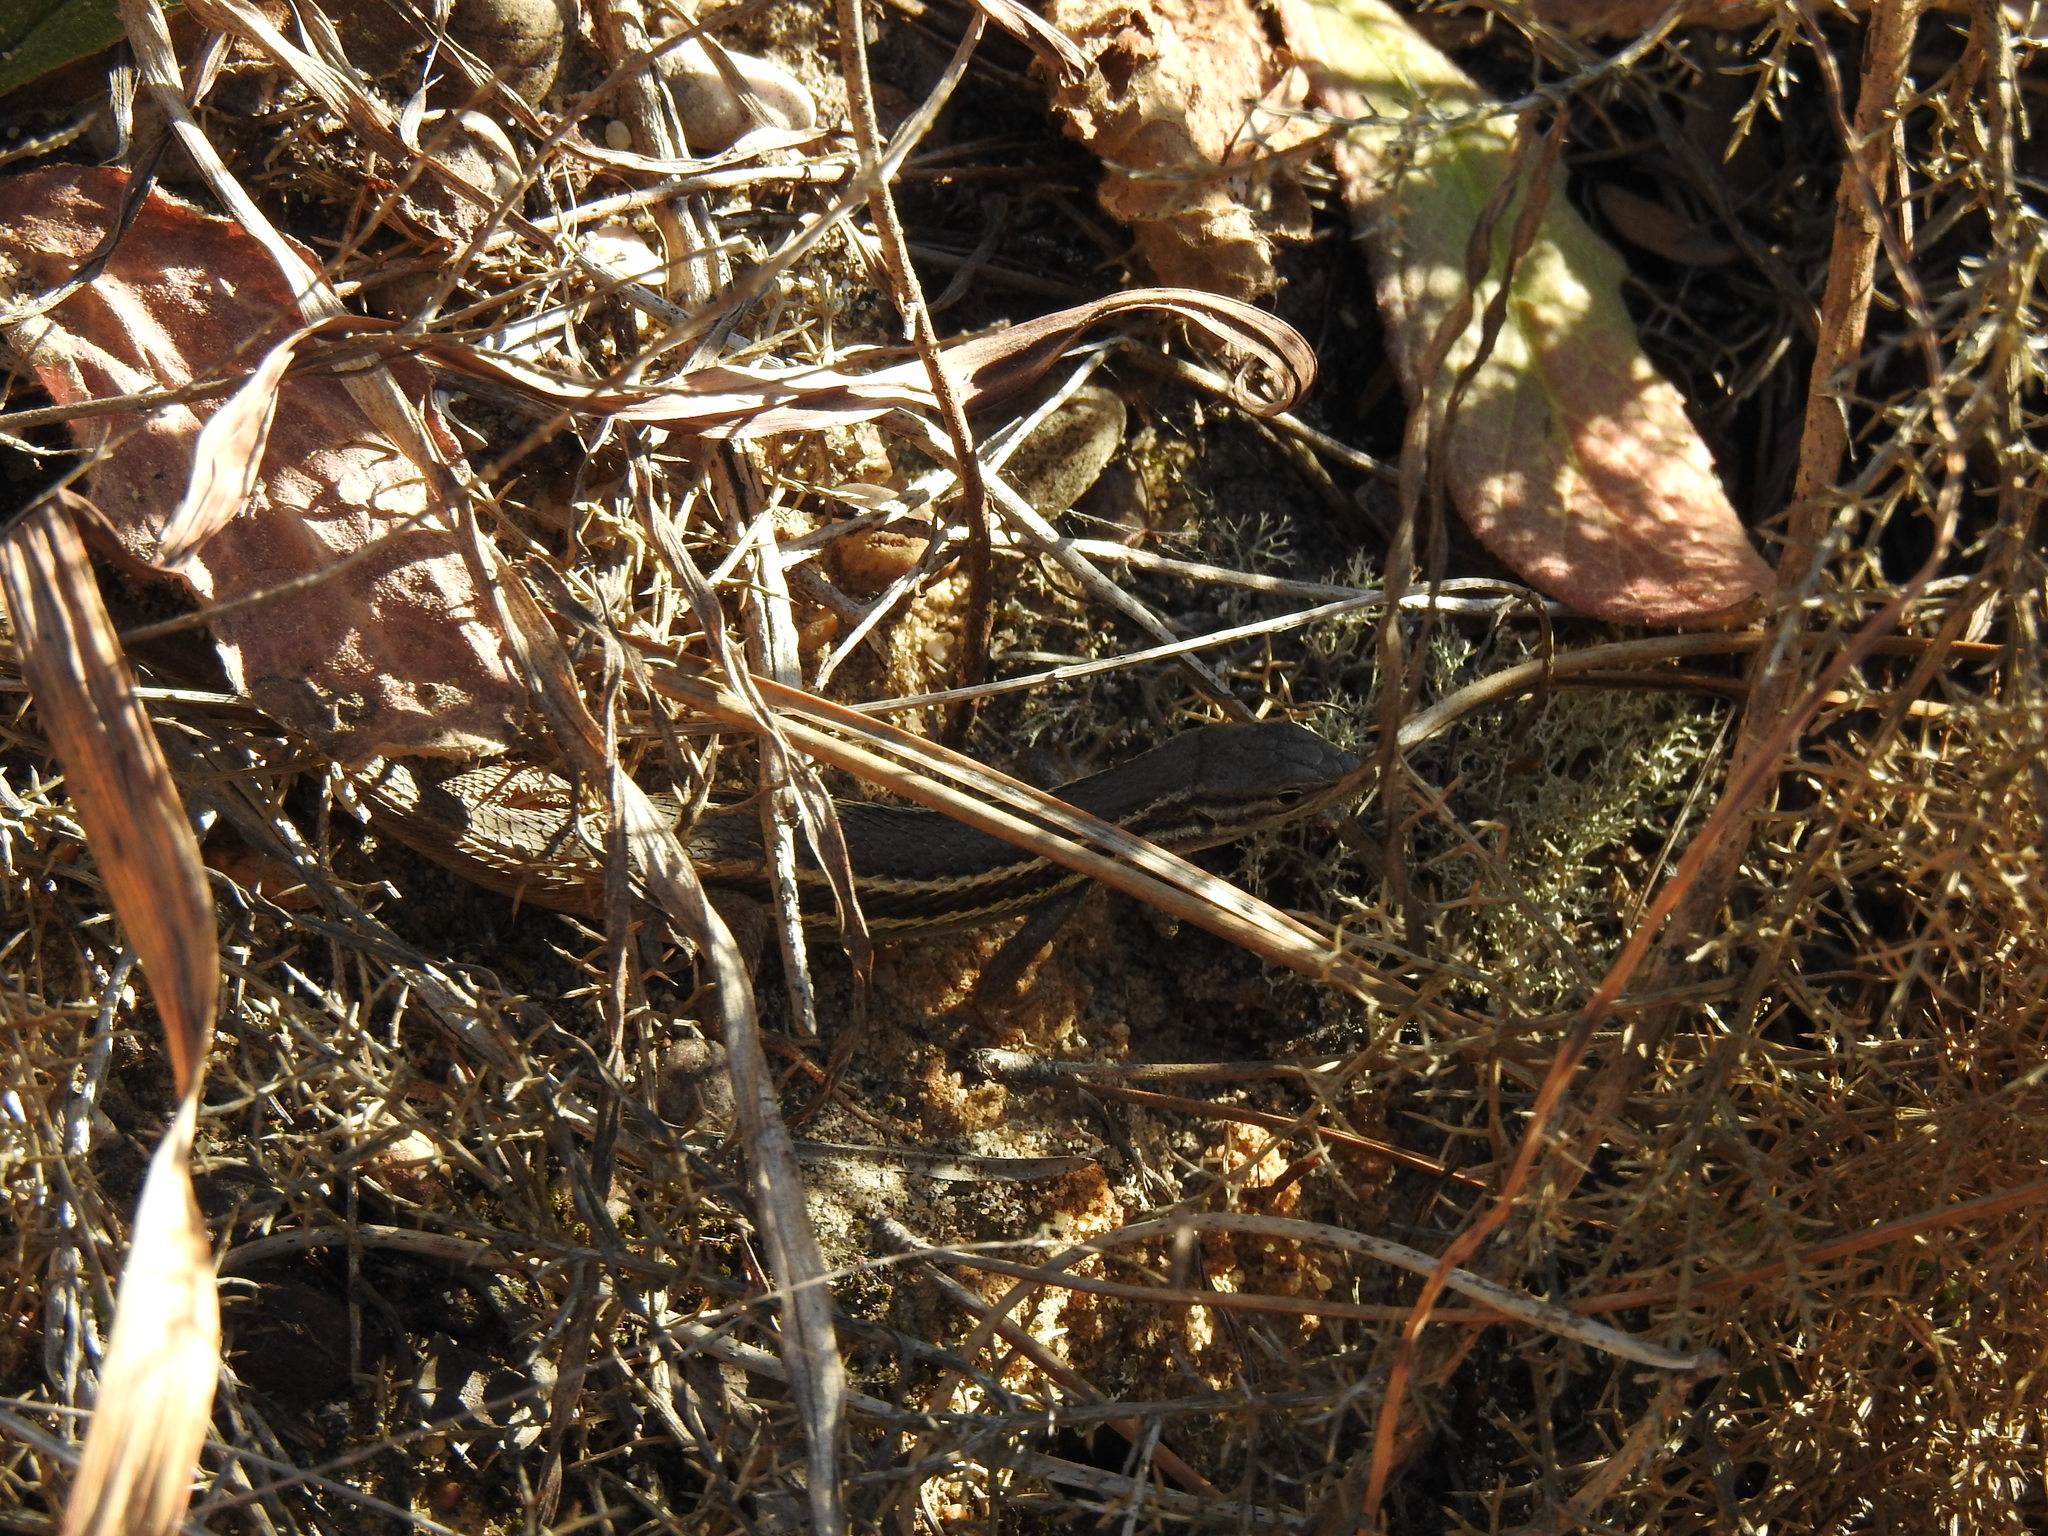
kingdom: Animalia
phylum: Chordata
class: Squamata
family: Lacertidae
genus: Psammodromus
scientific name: Psammodromus algirus
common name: Algerian psammodromus
